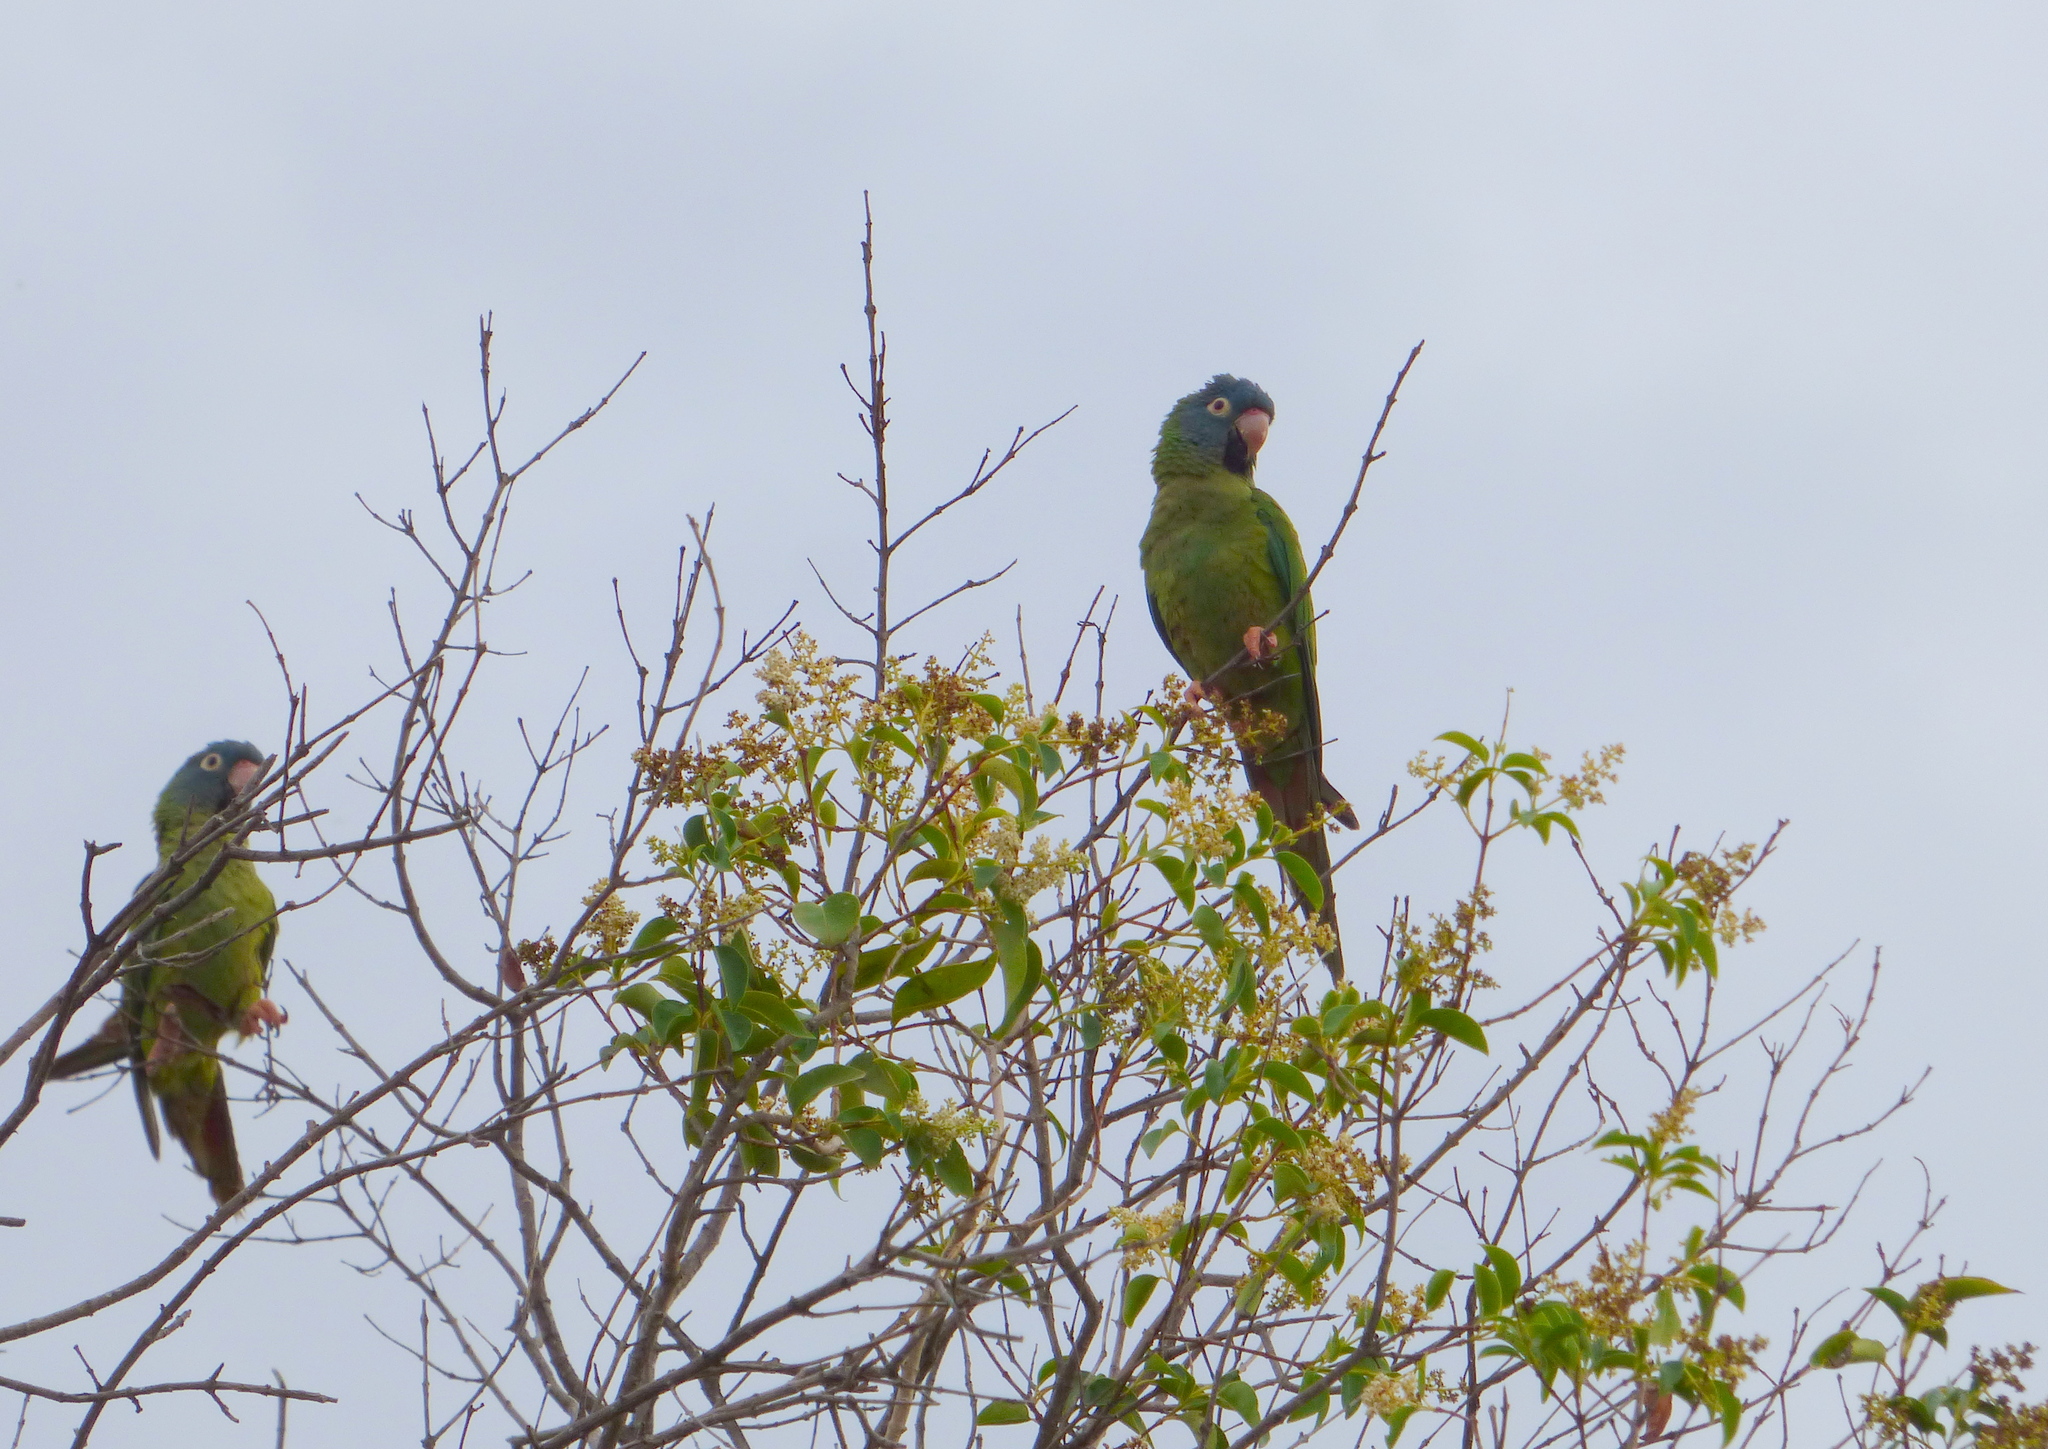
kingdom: Animalia
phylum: Chordata
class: Aves
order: Psittaciformes
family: Psittacidae
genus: Aratinga
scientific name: Aratinga acuticaudata
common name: Blue-crowned parakeet
